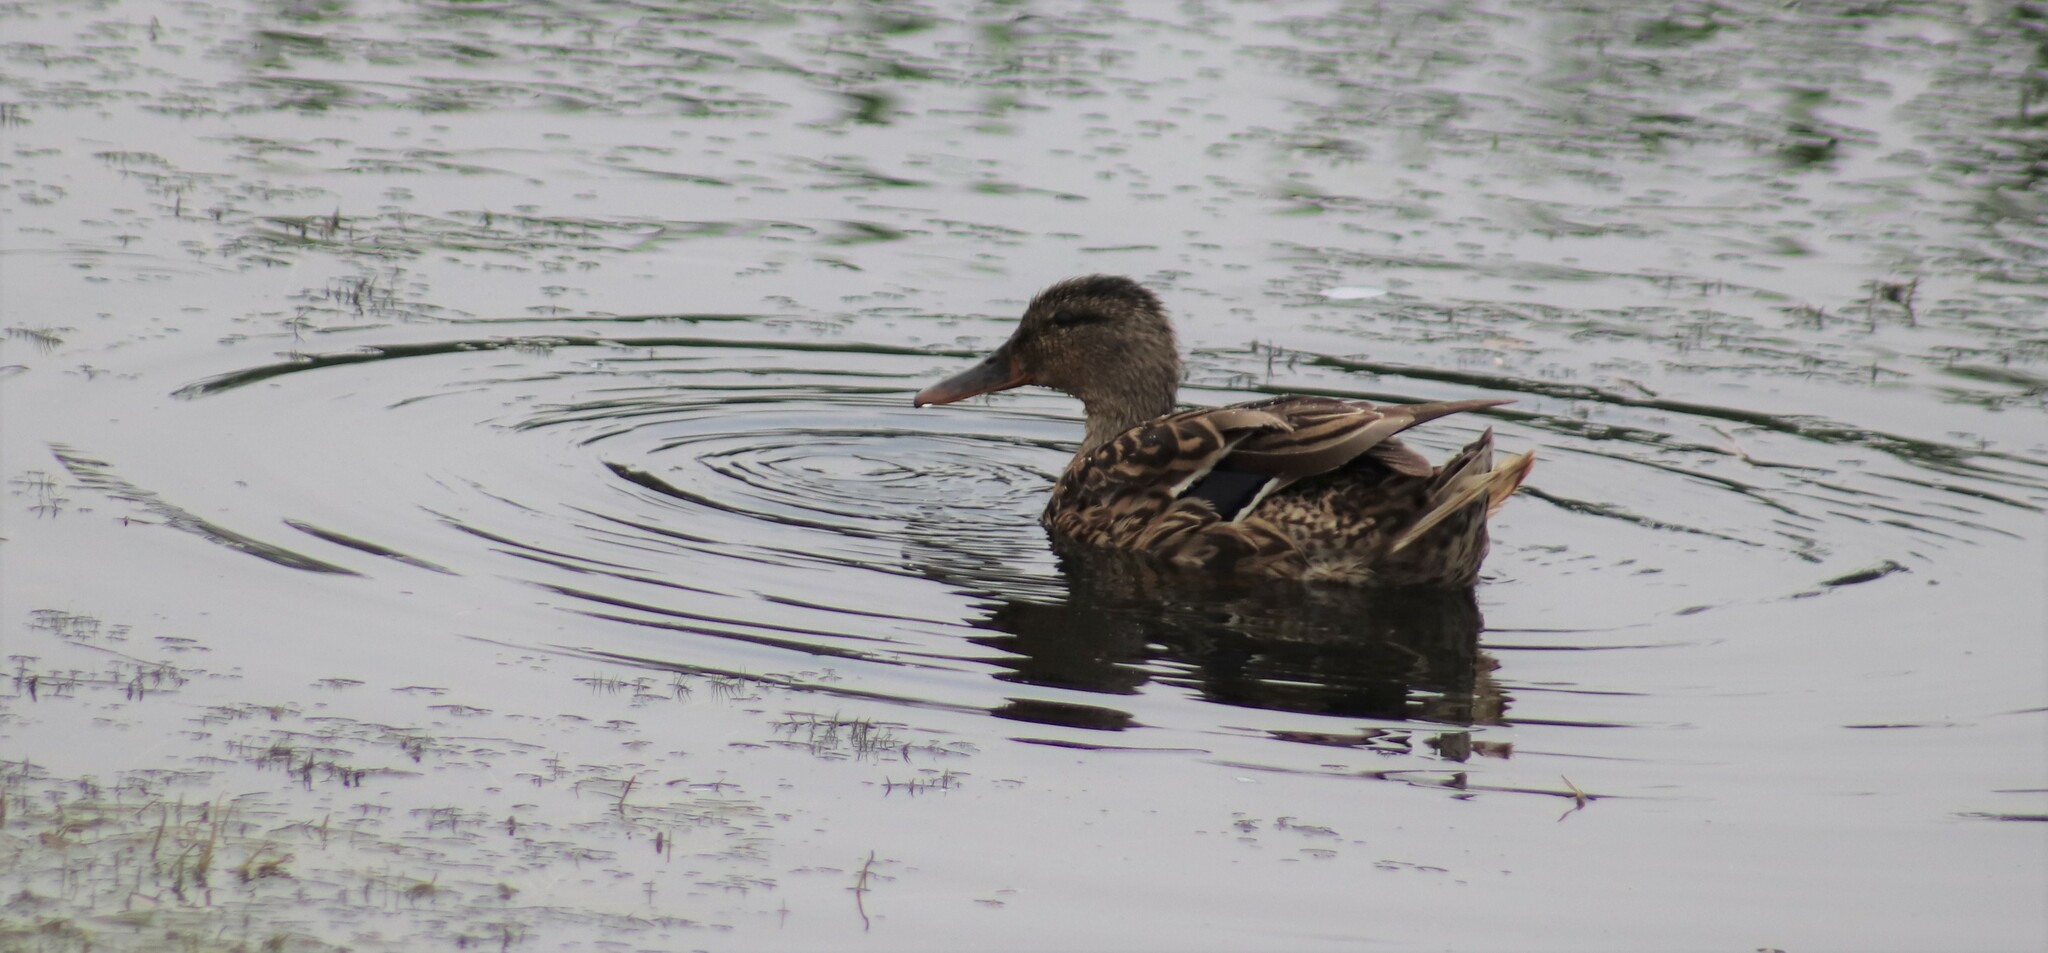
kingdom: Animalia
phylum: Chordata
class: Aves
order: Anseriformes
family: Anatidae
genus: Anas
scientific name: Anas platyrhynchos
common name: Mallard
